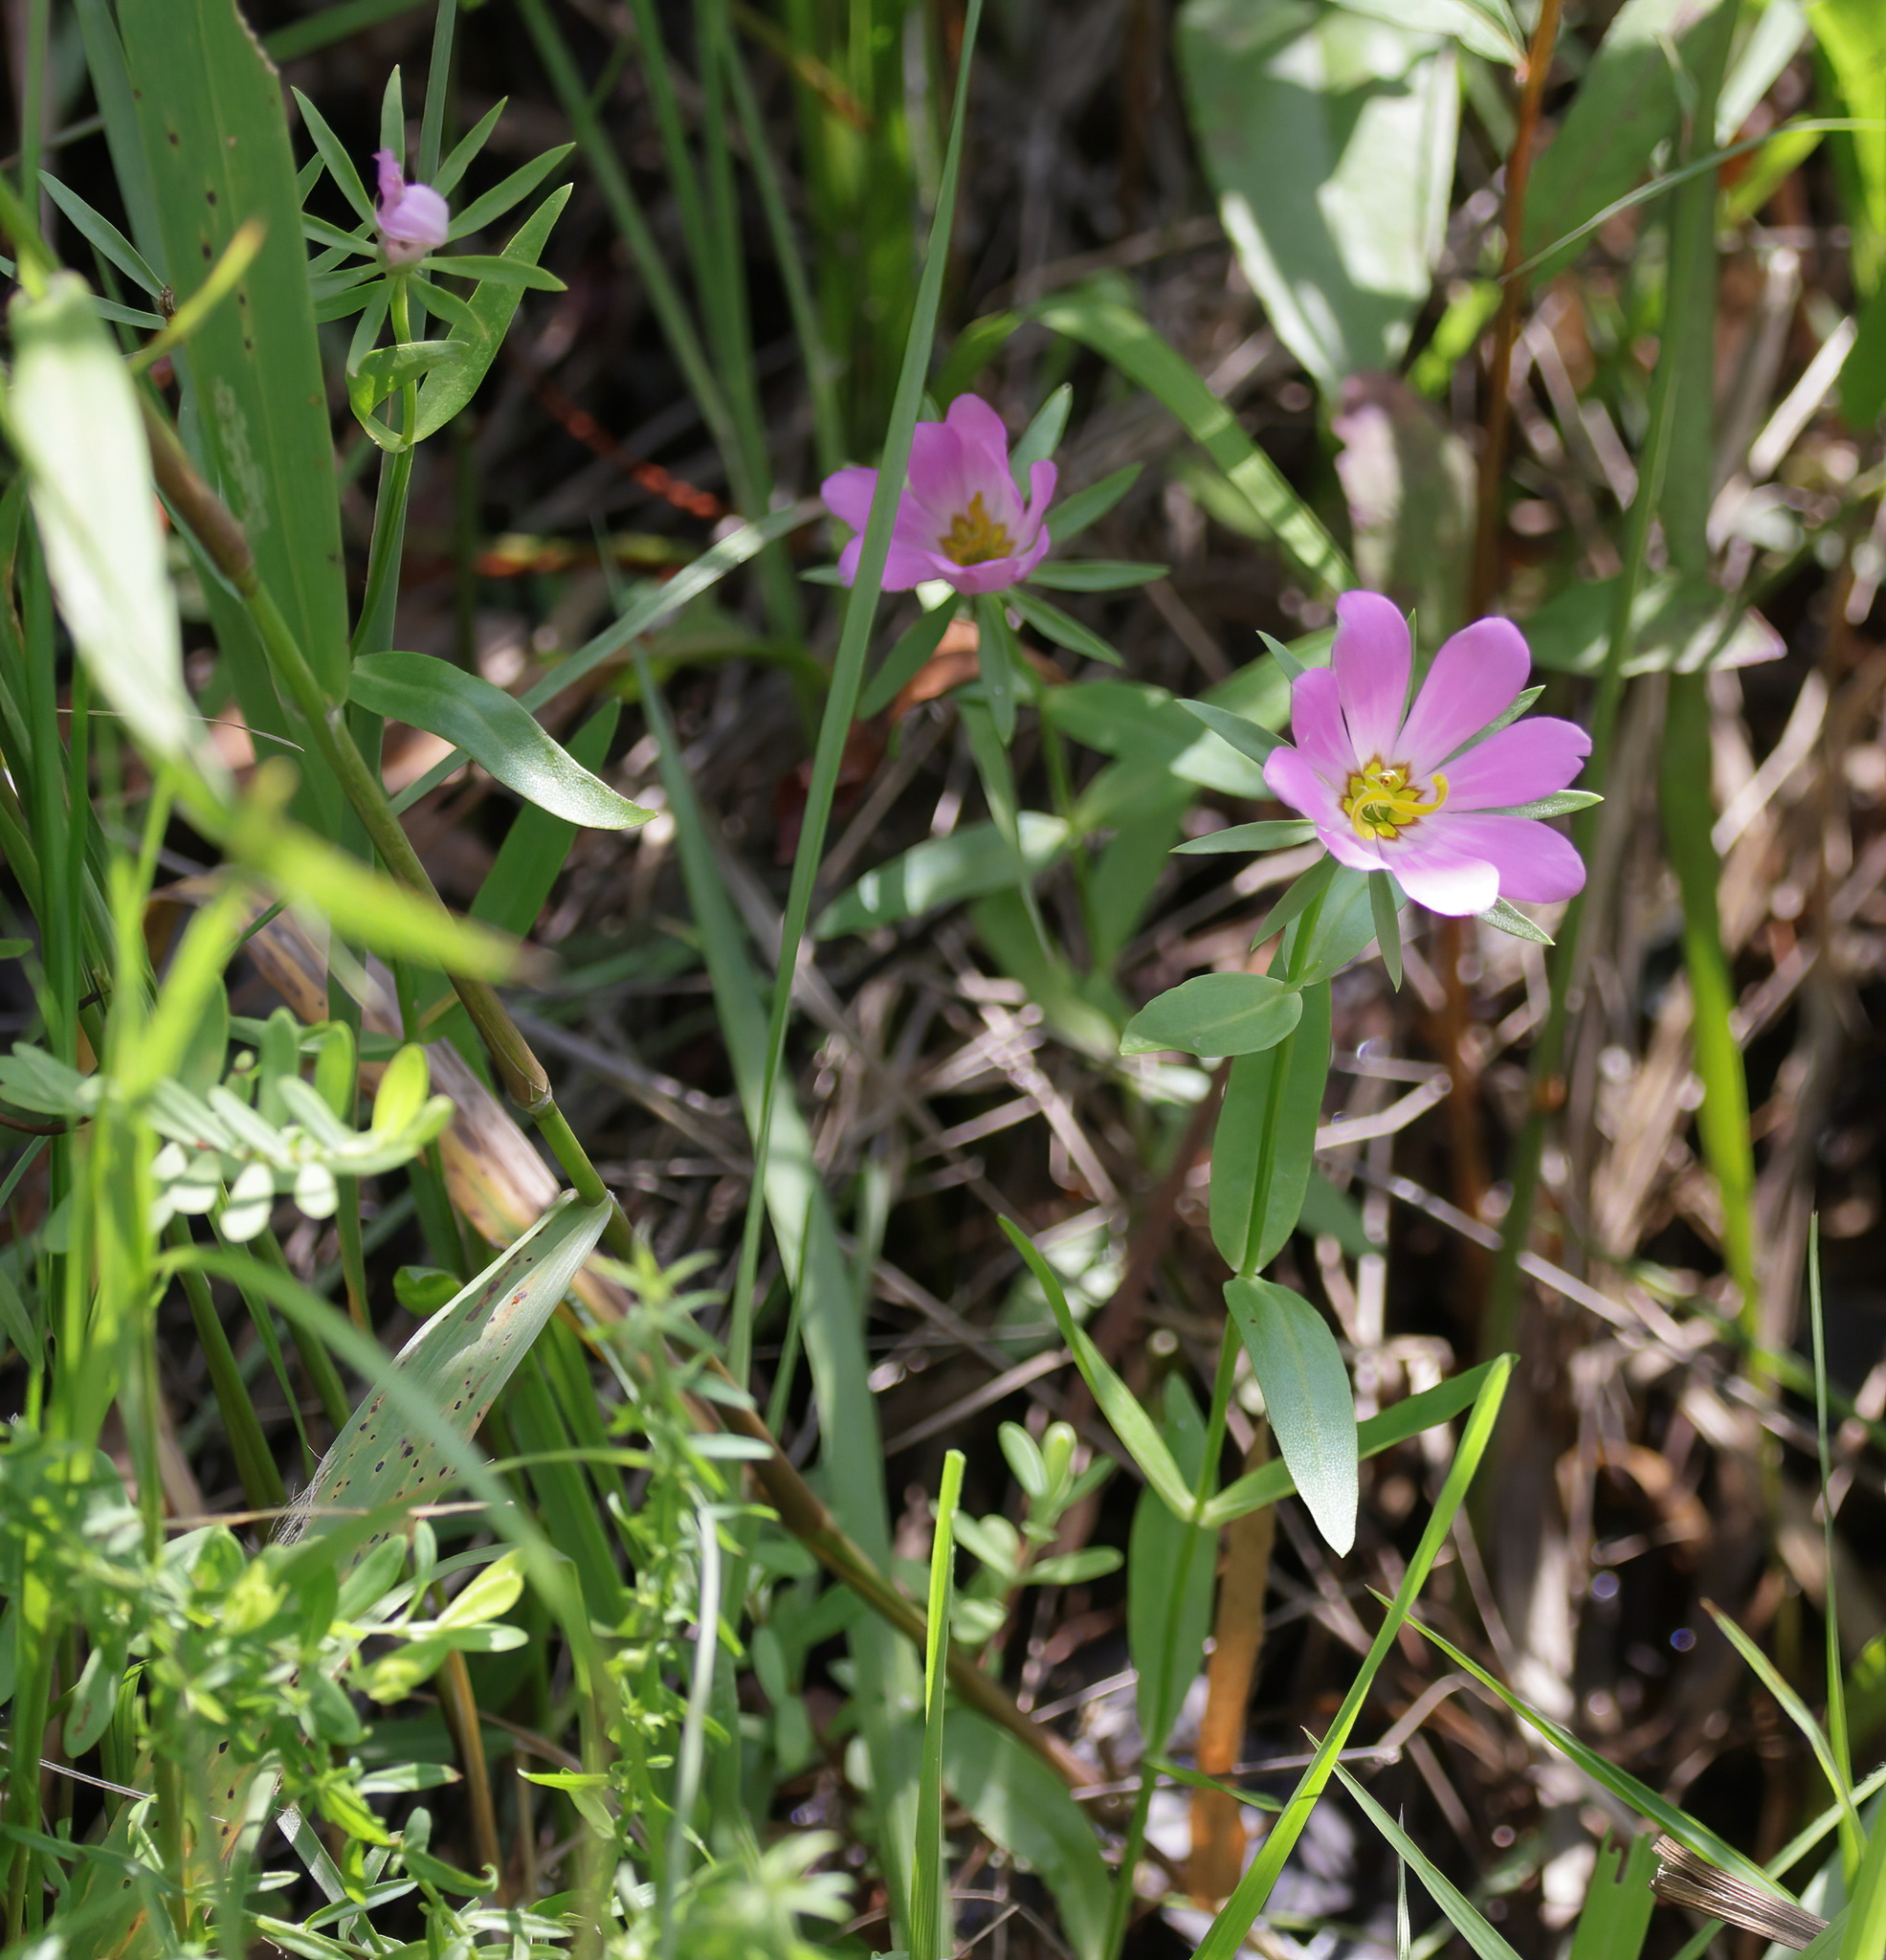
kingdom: Plantae
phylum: Tracheophyta
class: Magnoliopsida
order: Gentianales
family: Gentianaceae
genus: Sabatia
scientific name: Sabatia foliosa
